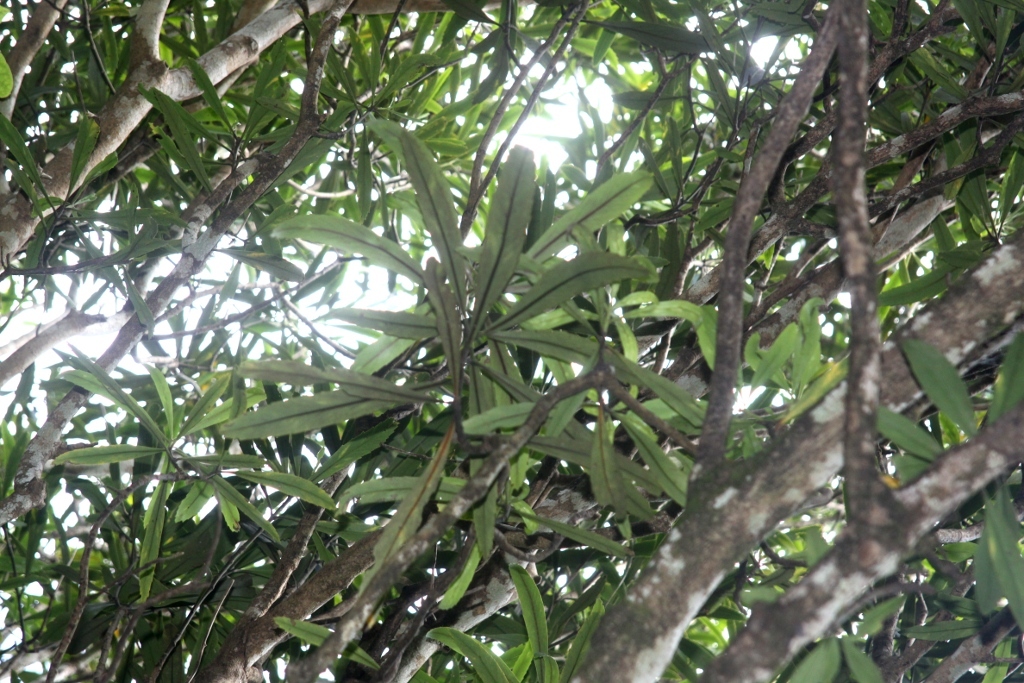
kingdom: Plantae
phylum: Tracheophyta
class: Magnoliopsida
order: Apiales
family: Araliaceae
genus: Pseudopanax
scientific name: Pseudopanax crassifolius
